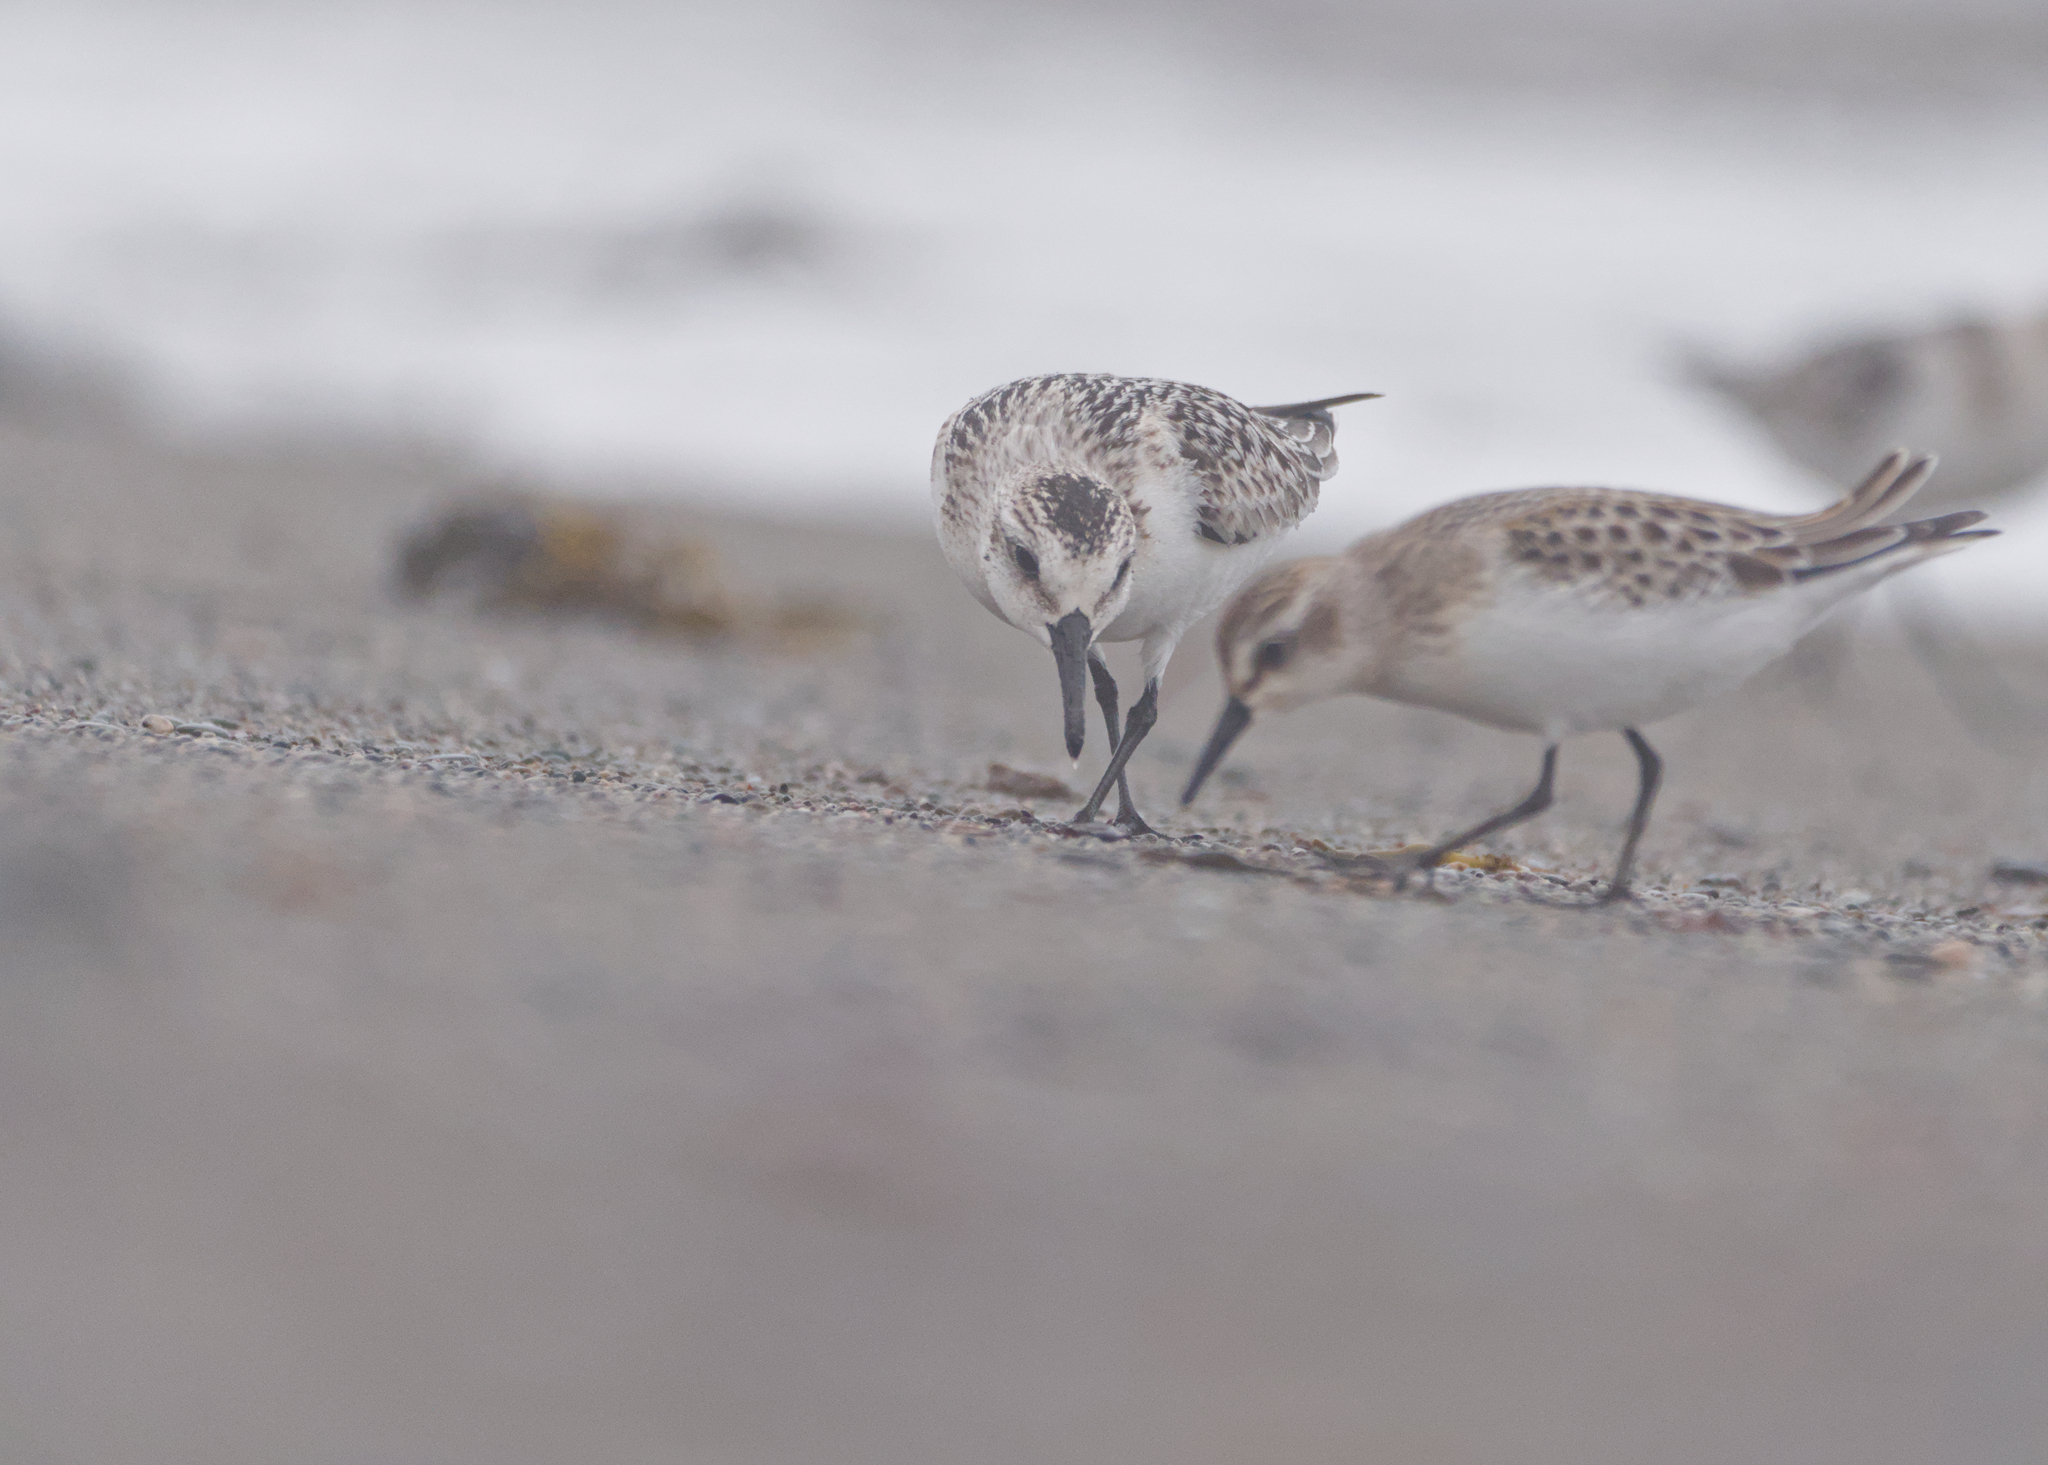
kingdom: Animalia
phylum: Chordata
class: Aves
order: Charadriiformes
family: Scolopacidae
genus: Calidris
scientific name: Calidris alba
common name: Sanderling
